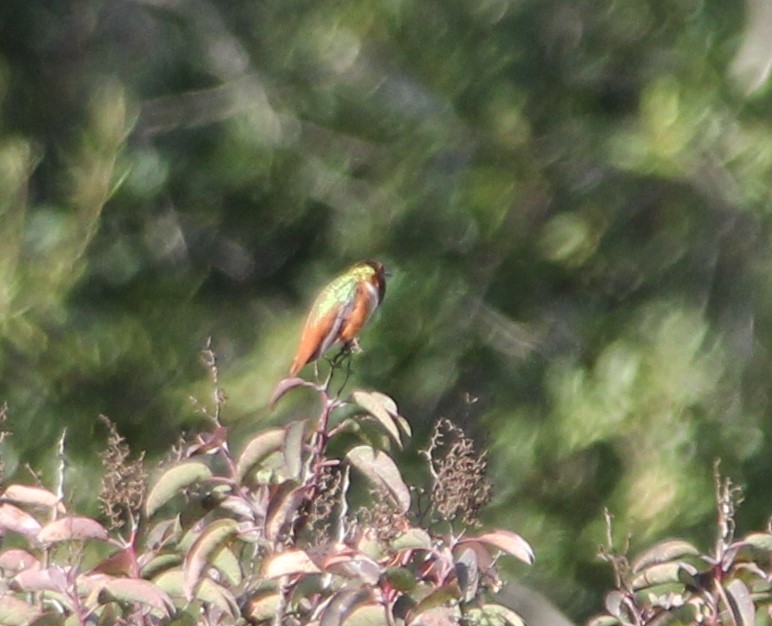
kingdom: Animalia
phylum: Chordata
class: Aves
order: Apodiformes
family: Trochilidae
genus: Selasphorus
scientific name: Selasphorus sasin
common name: Allen's hummingbird
